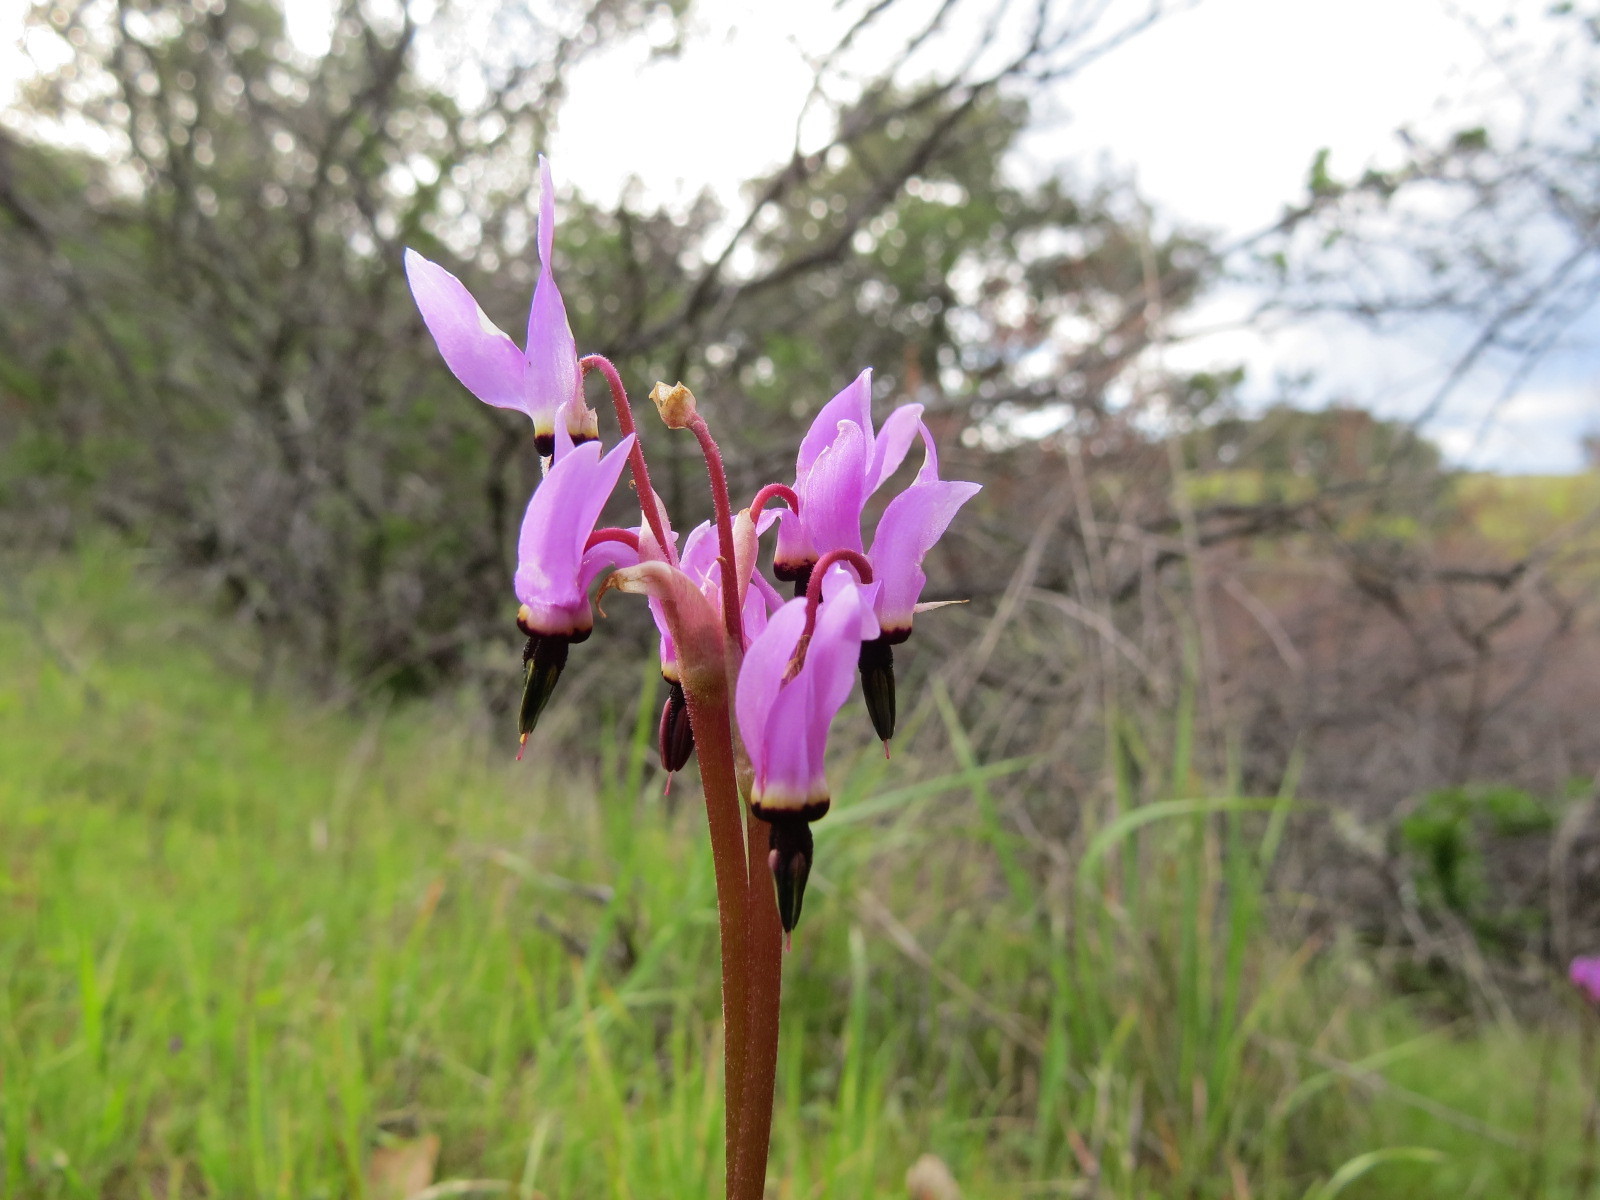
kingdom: Plantae
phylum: Tracheophyta
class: Magnoliopsida
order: Ericales
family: Primulaceae
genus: Dodecatheon
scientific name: Dodecatheon hendersonii
